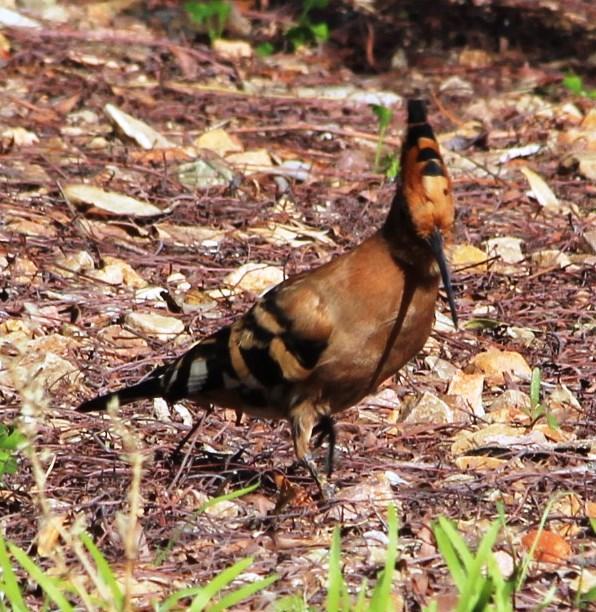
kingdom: Animalia
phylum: Chordata
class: Aves
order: Bucerotiformes
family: Upupidae
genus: Upupa
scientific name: Upupa africana
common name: African hoopoe
